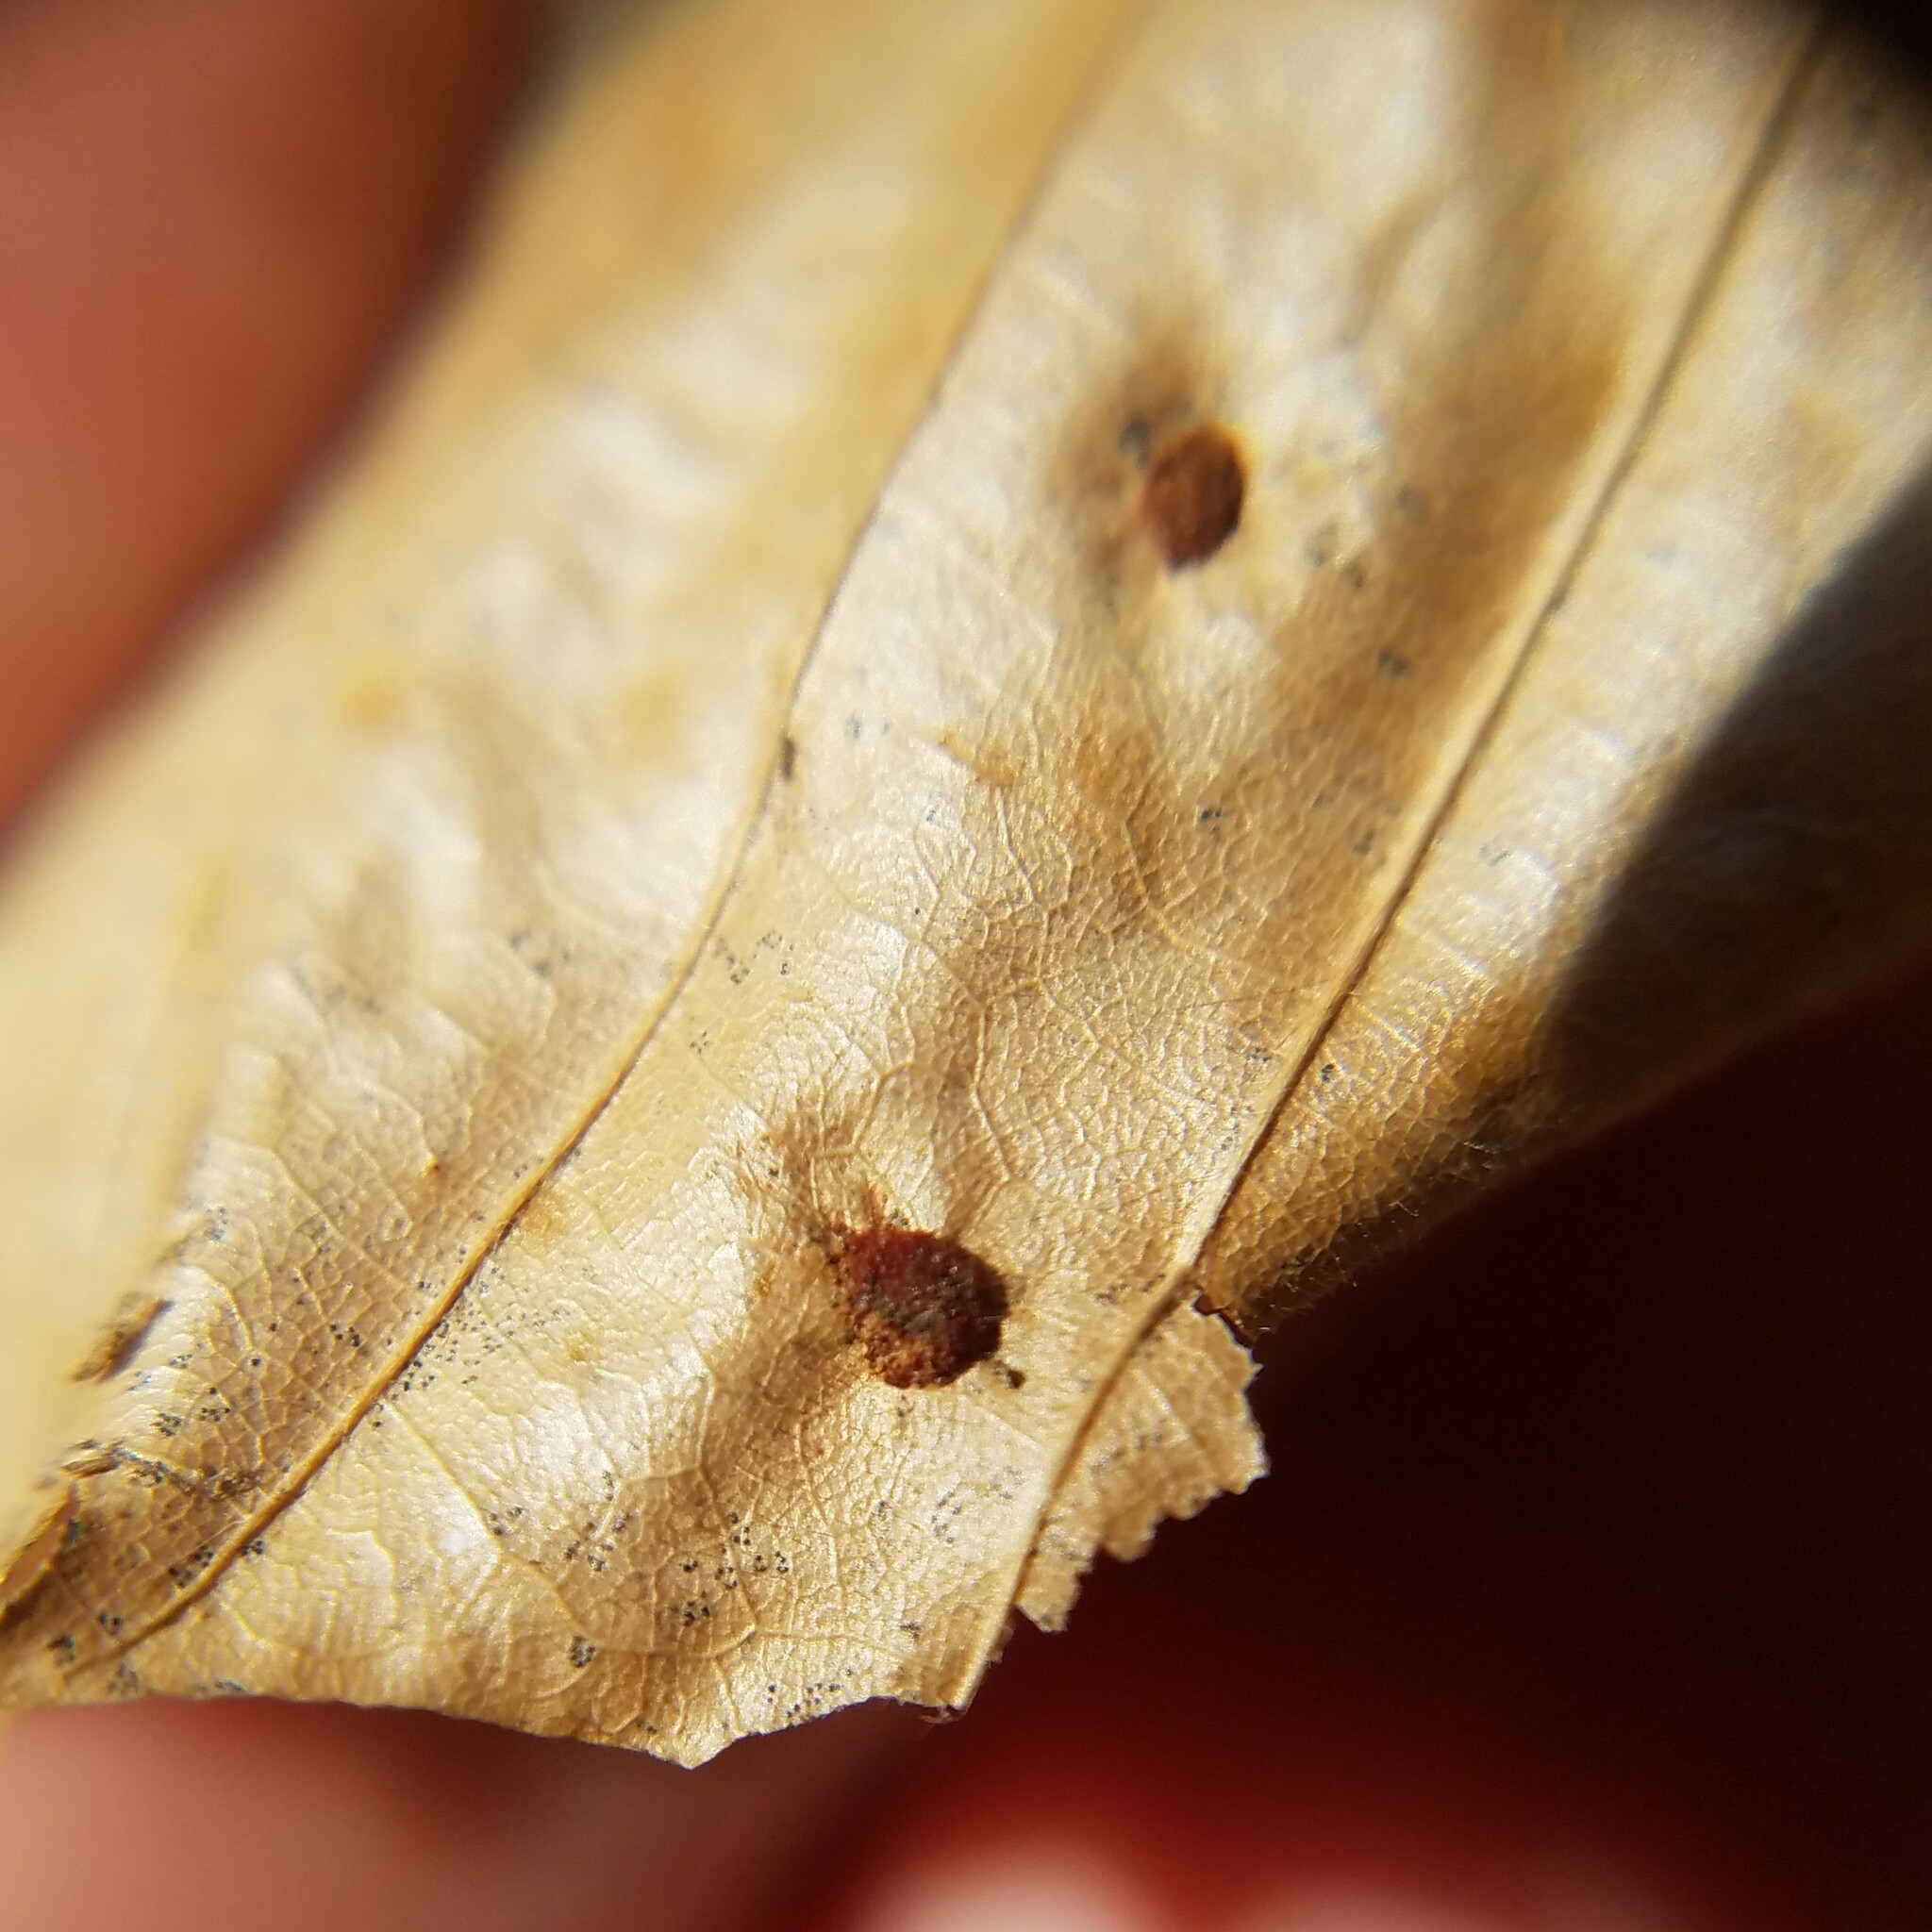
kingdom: Animalia
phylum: Arthropoda
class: Arachnida
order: Trombidiformes
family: Eriophyidae
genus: Acalitus
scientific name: Acalitus
